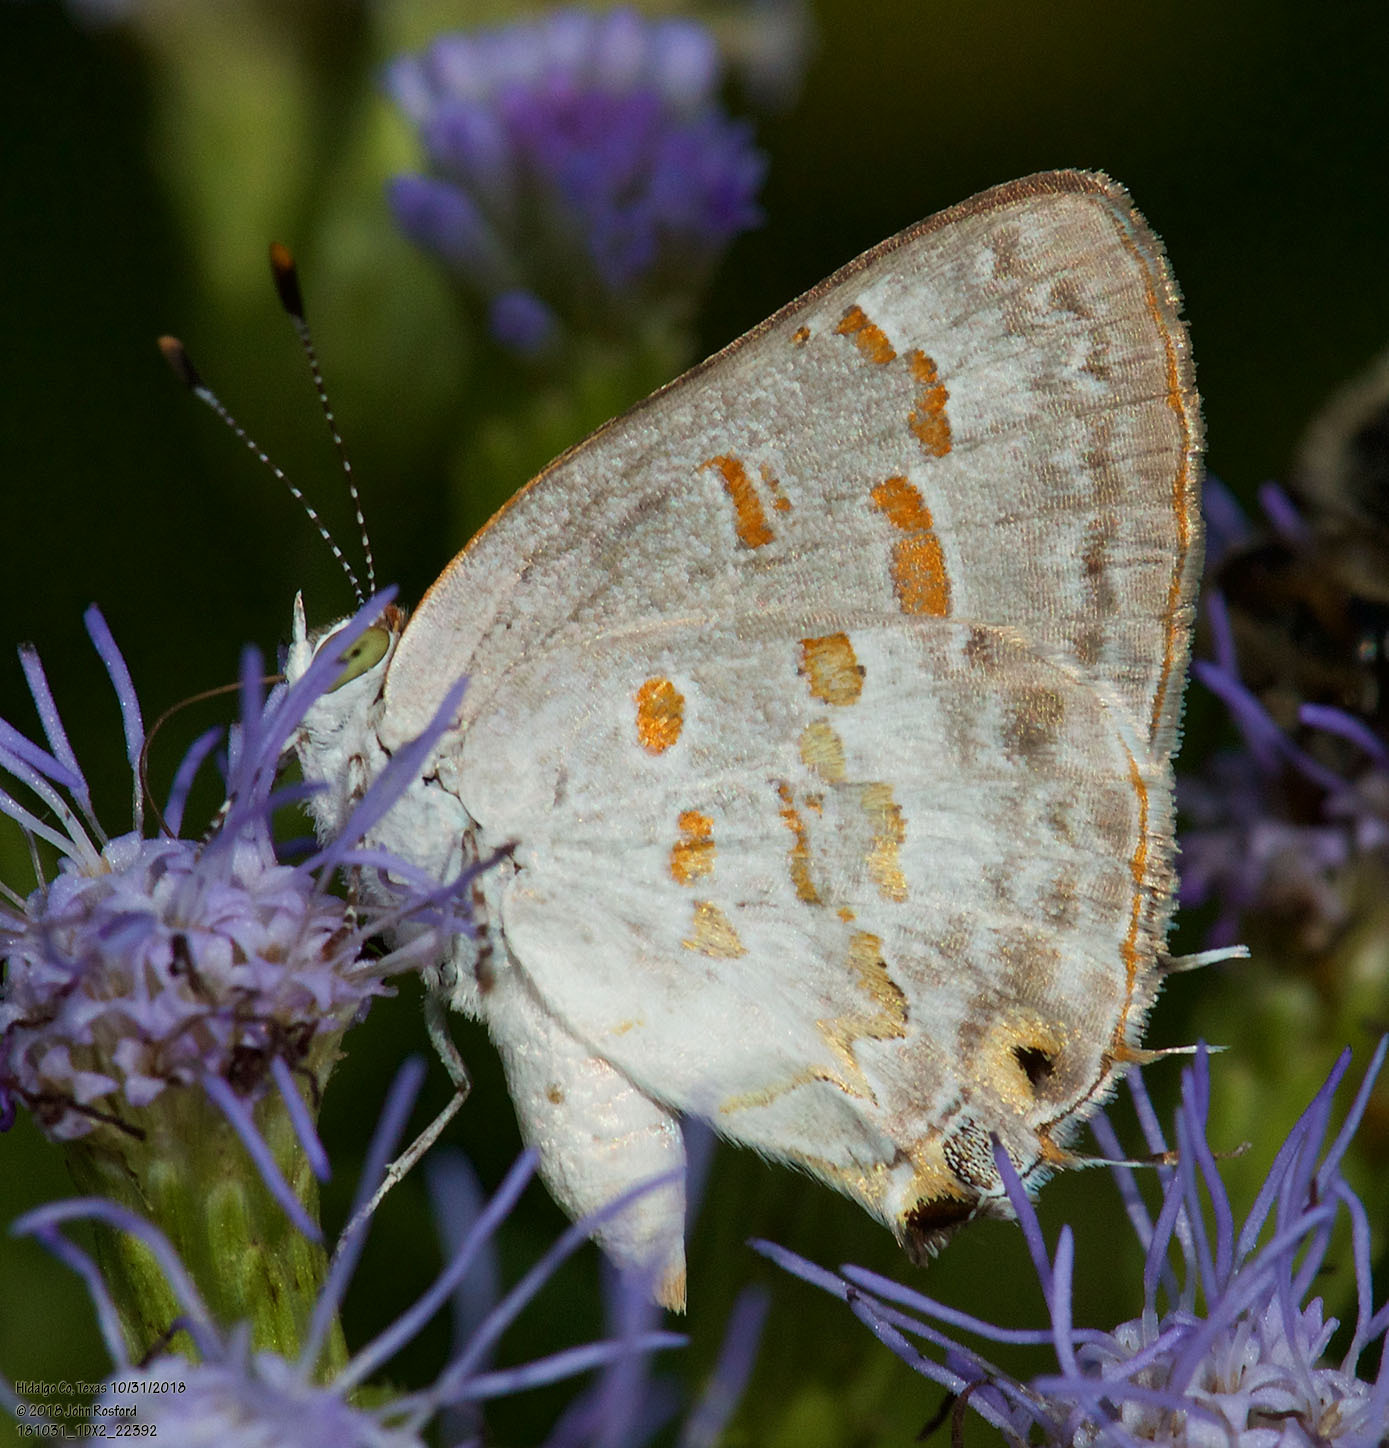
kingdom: Animalia
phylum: Arthropoda
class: Insecta
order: Lepidoptera
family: Lycaenidae
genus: Ministrymon
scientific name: Ministrymon clytie
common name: Clytie ministreak
